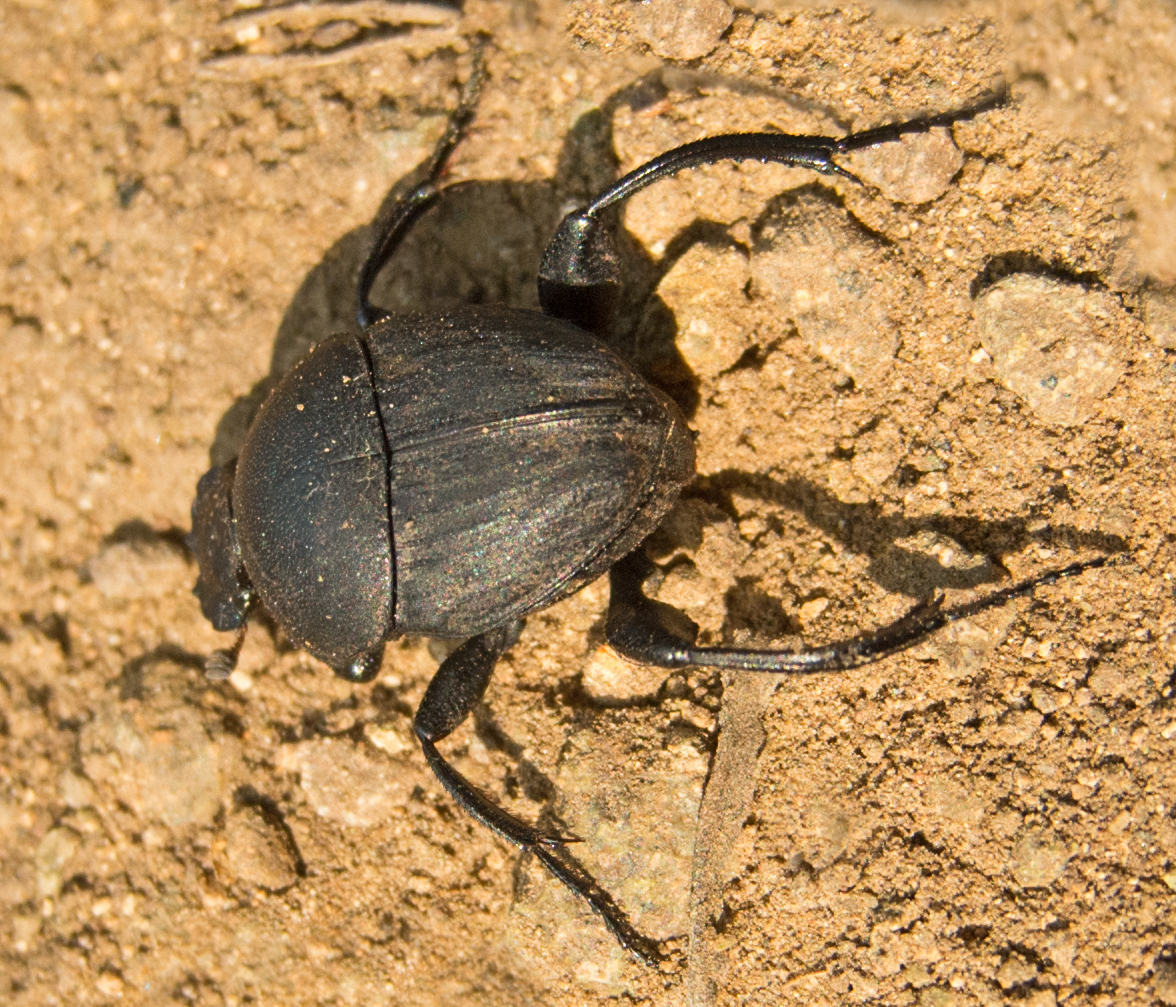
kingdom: Animalia
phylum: Arthropoda
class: Insecta
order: Coleoptera
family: Scarabaeidae
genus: Sisyphus
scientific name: Sisyphus schaefferi
